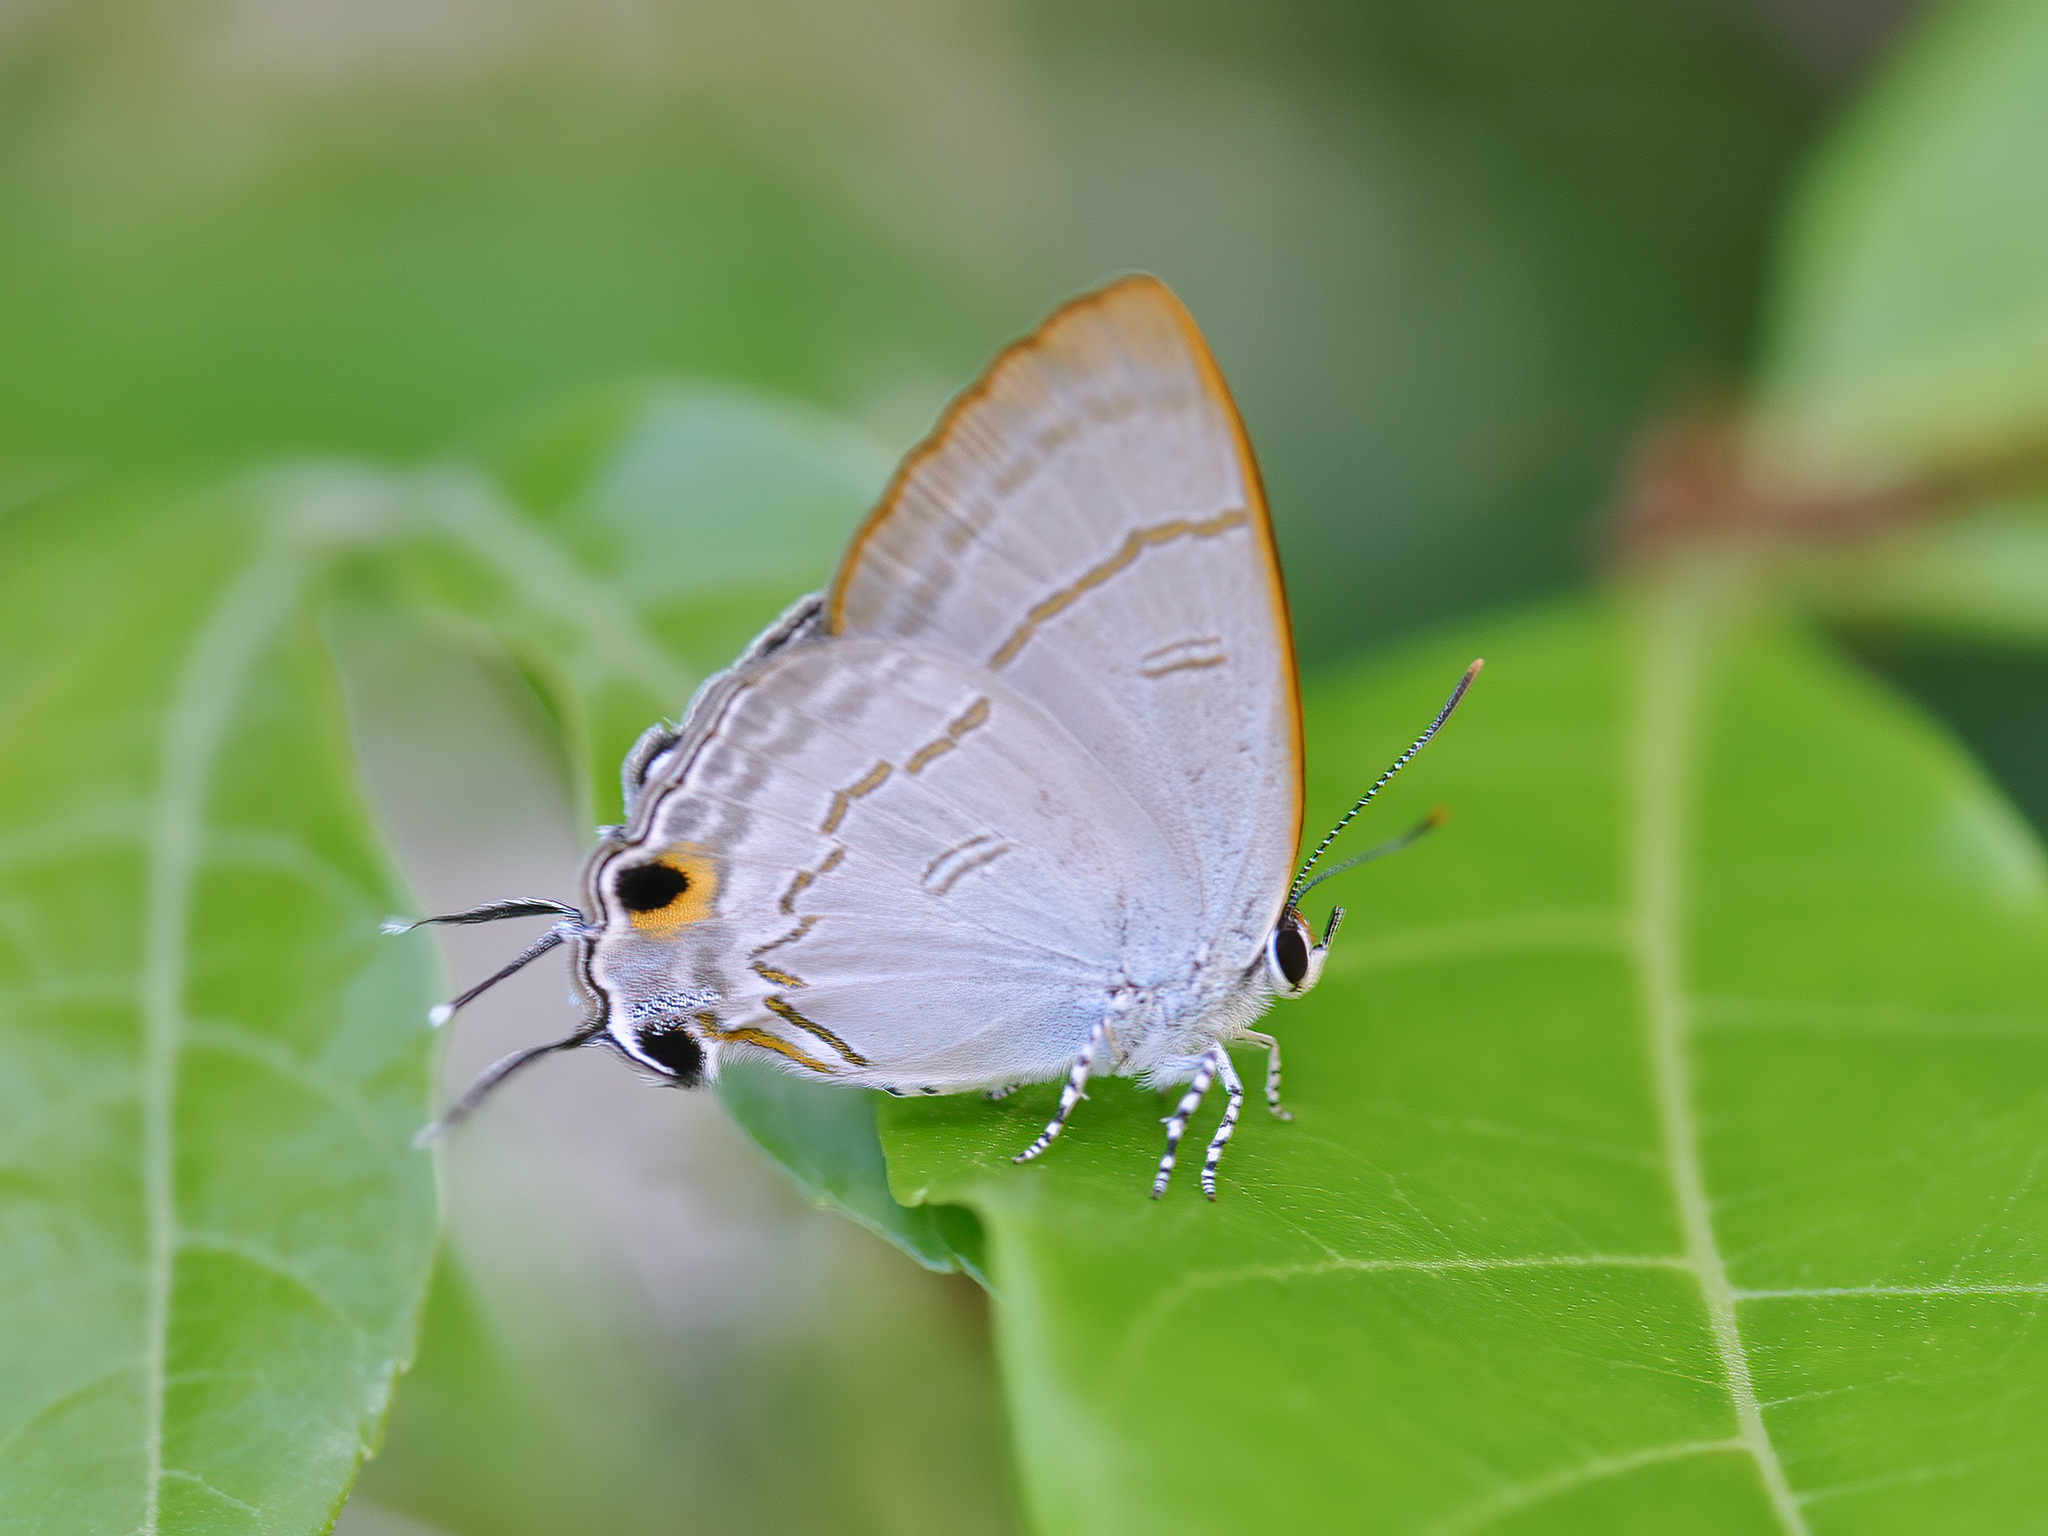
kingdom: Animalia
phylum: Arthropoda
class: Insecta
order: Lepidoptera
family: Lycaenidae
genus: Hypolycaena
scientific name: Hypolycaena erylus
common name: Common tit
